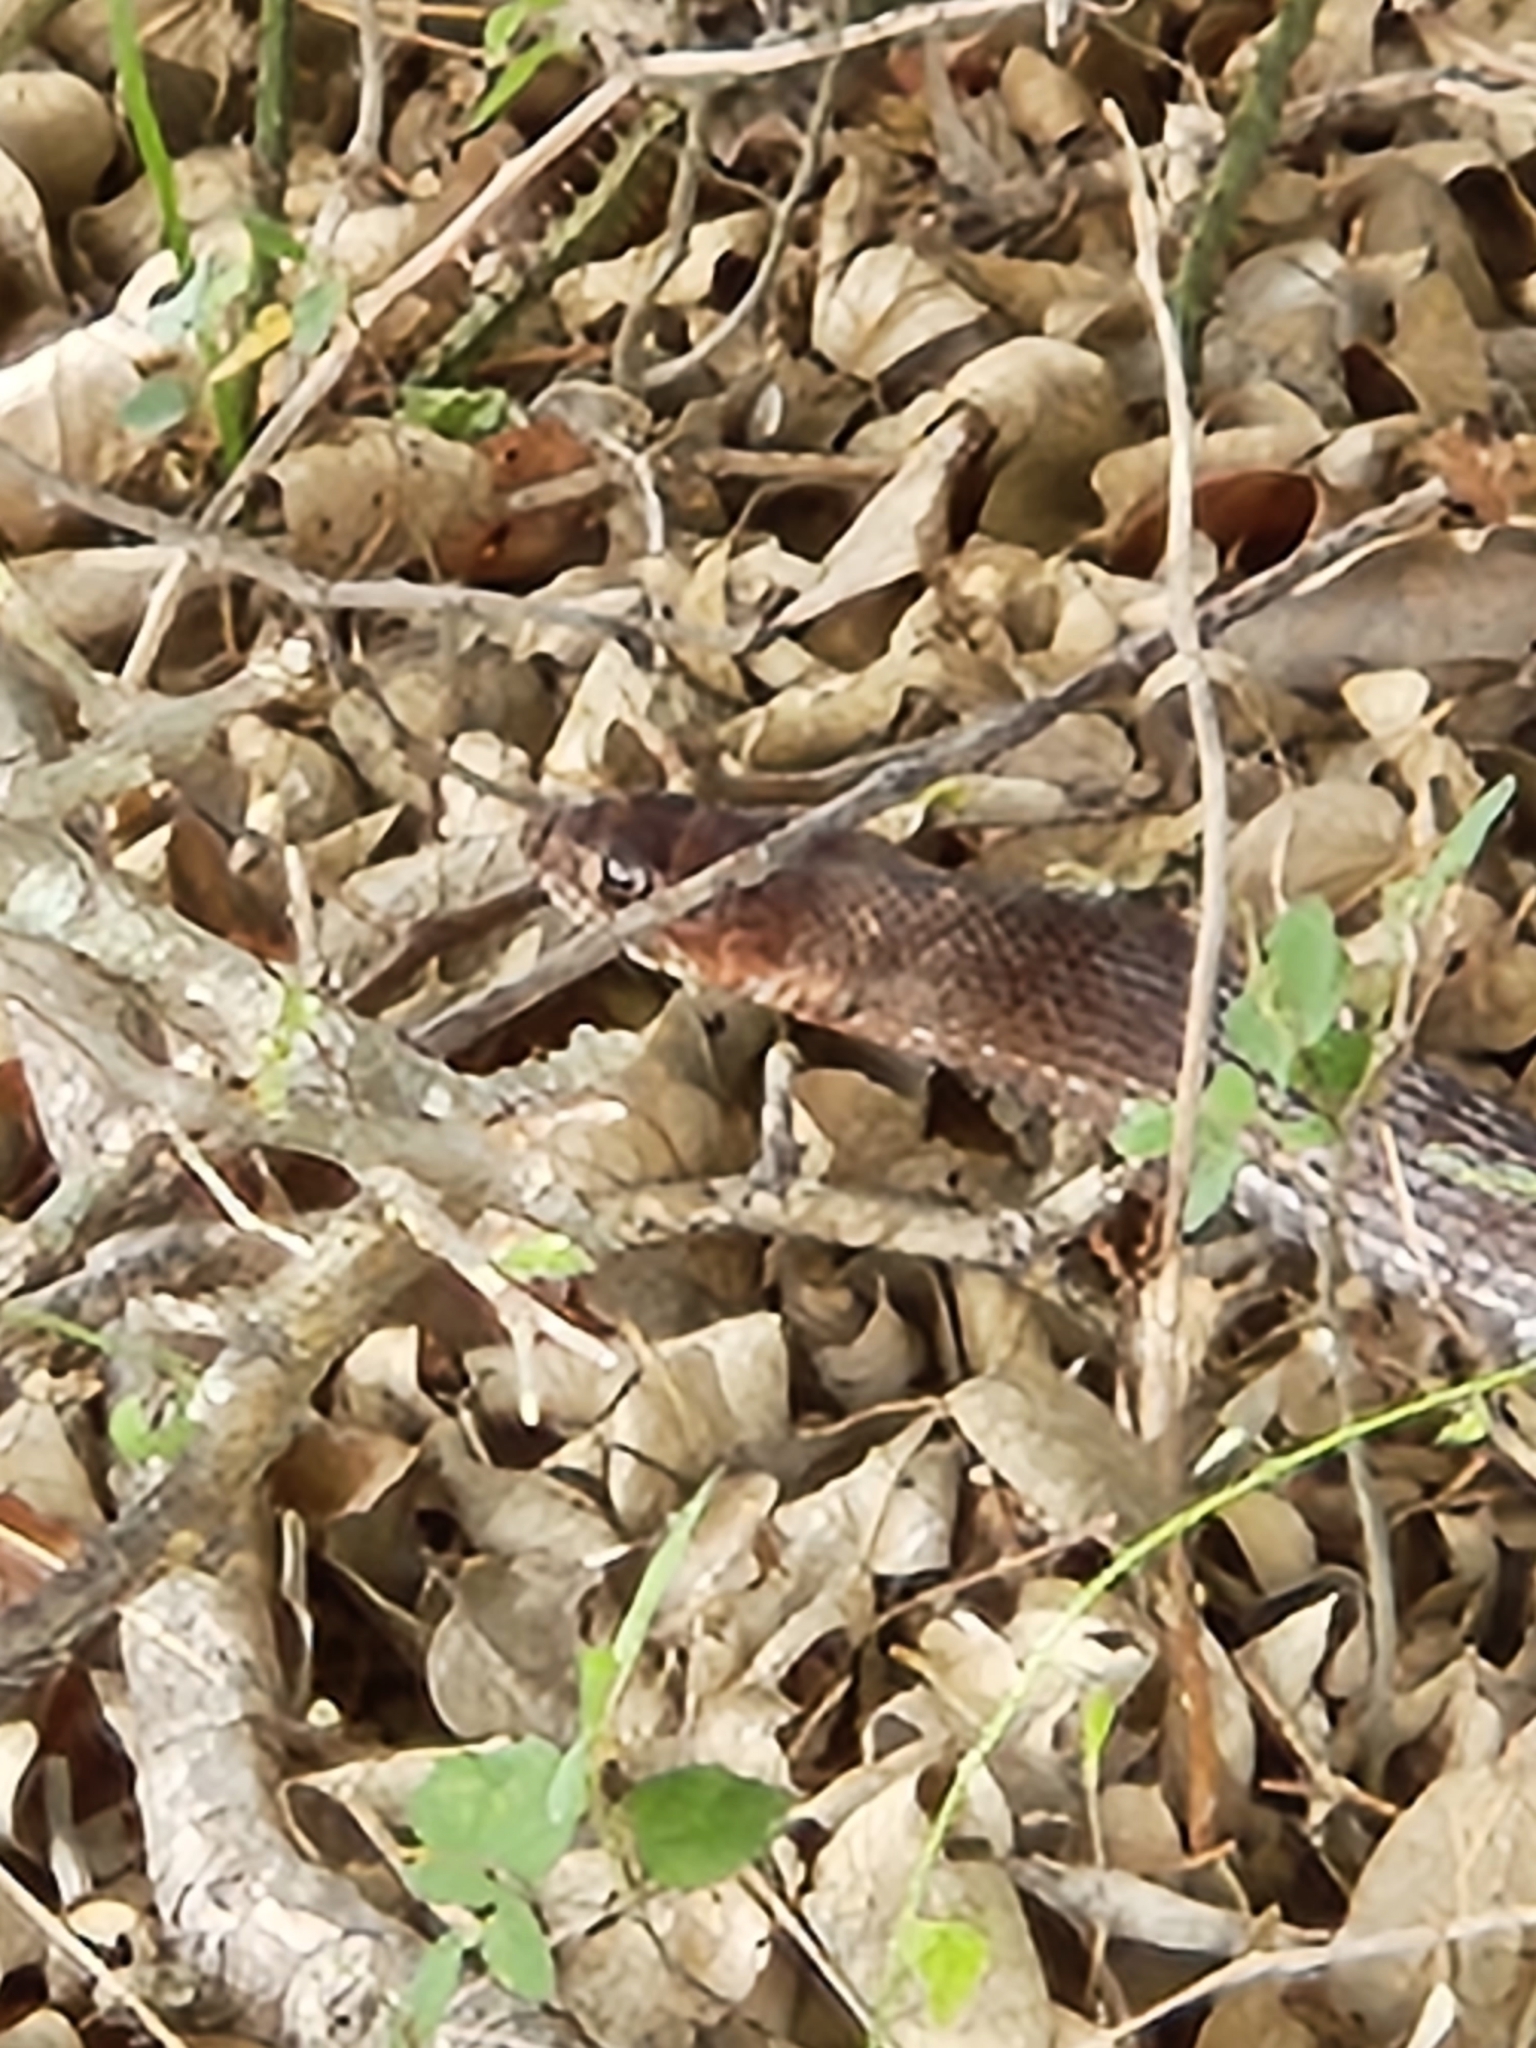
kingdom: Animalia
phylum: Chordata
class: Squamata
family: Colubridae
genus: Masticophis
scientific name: Masticophis flagellum
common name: Coachwhip
